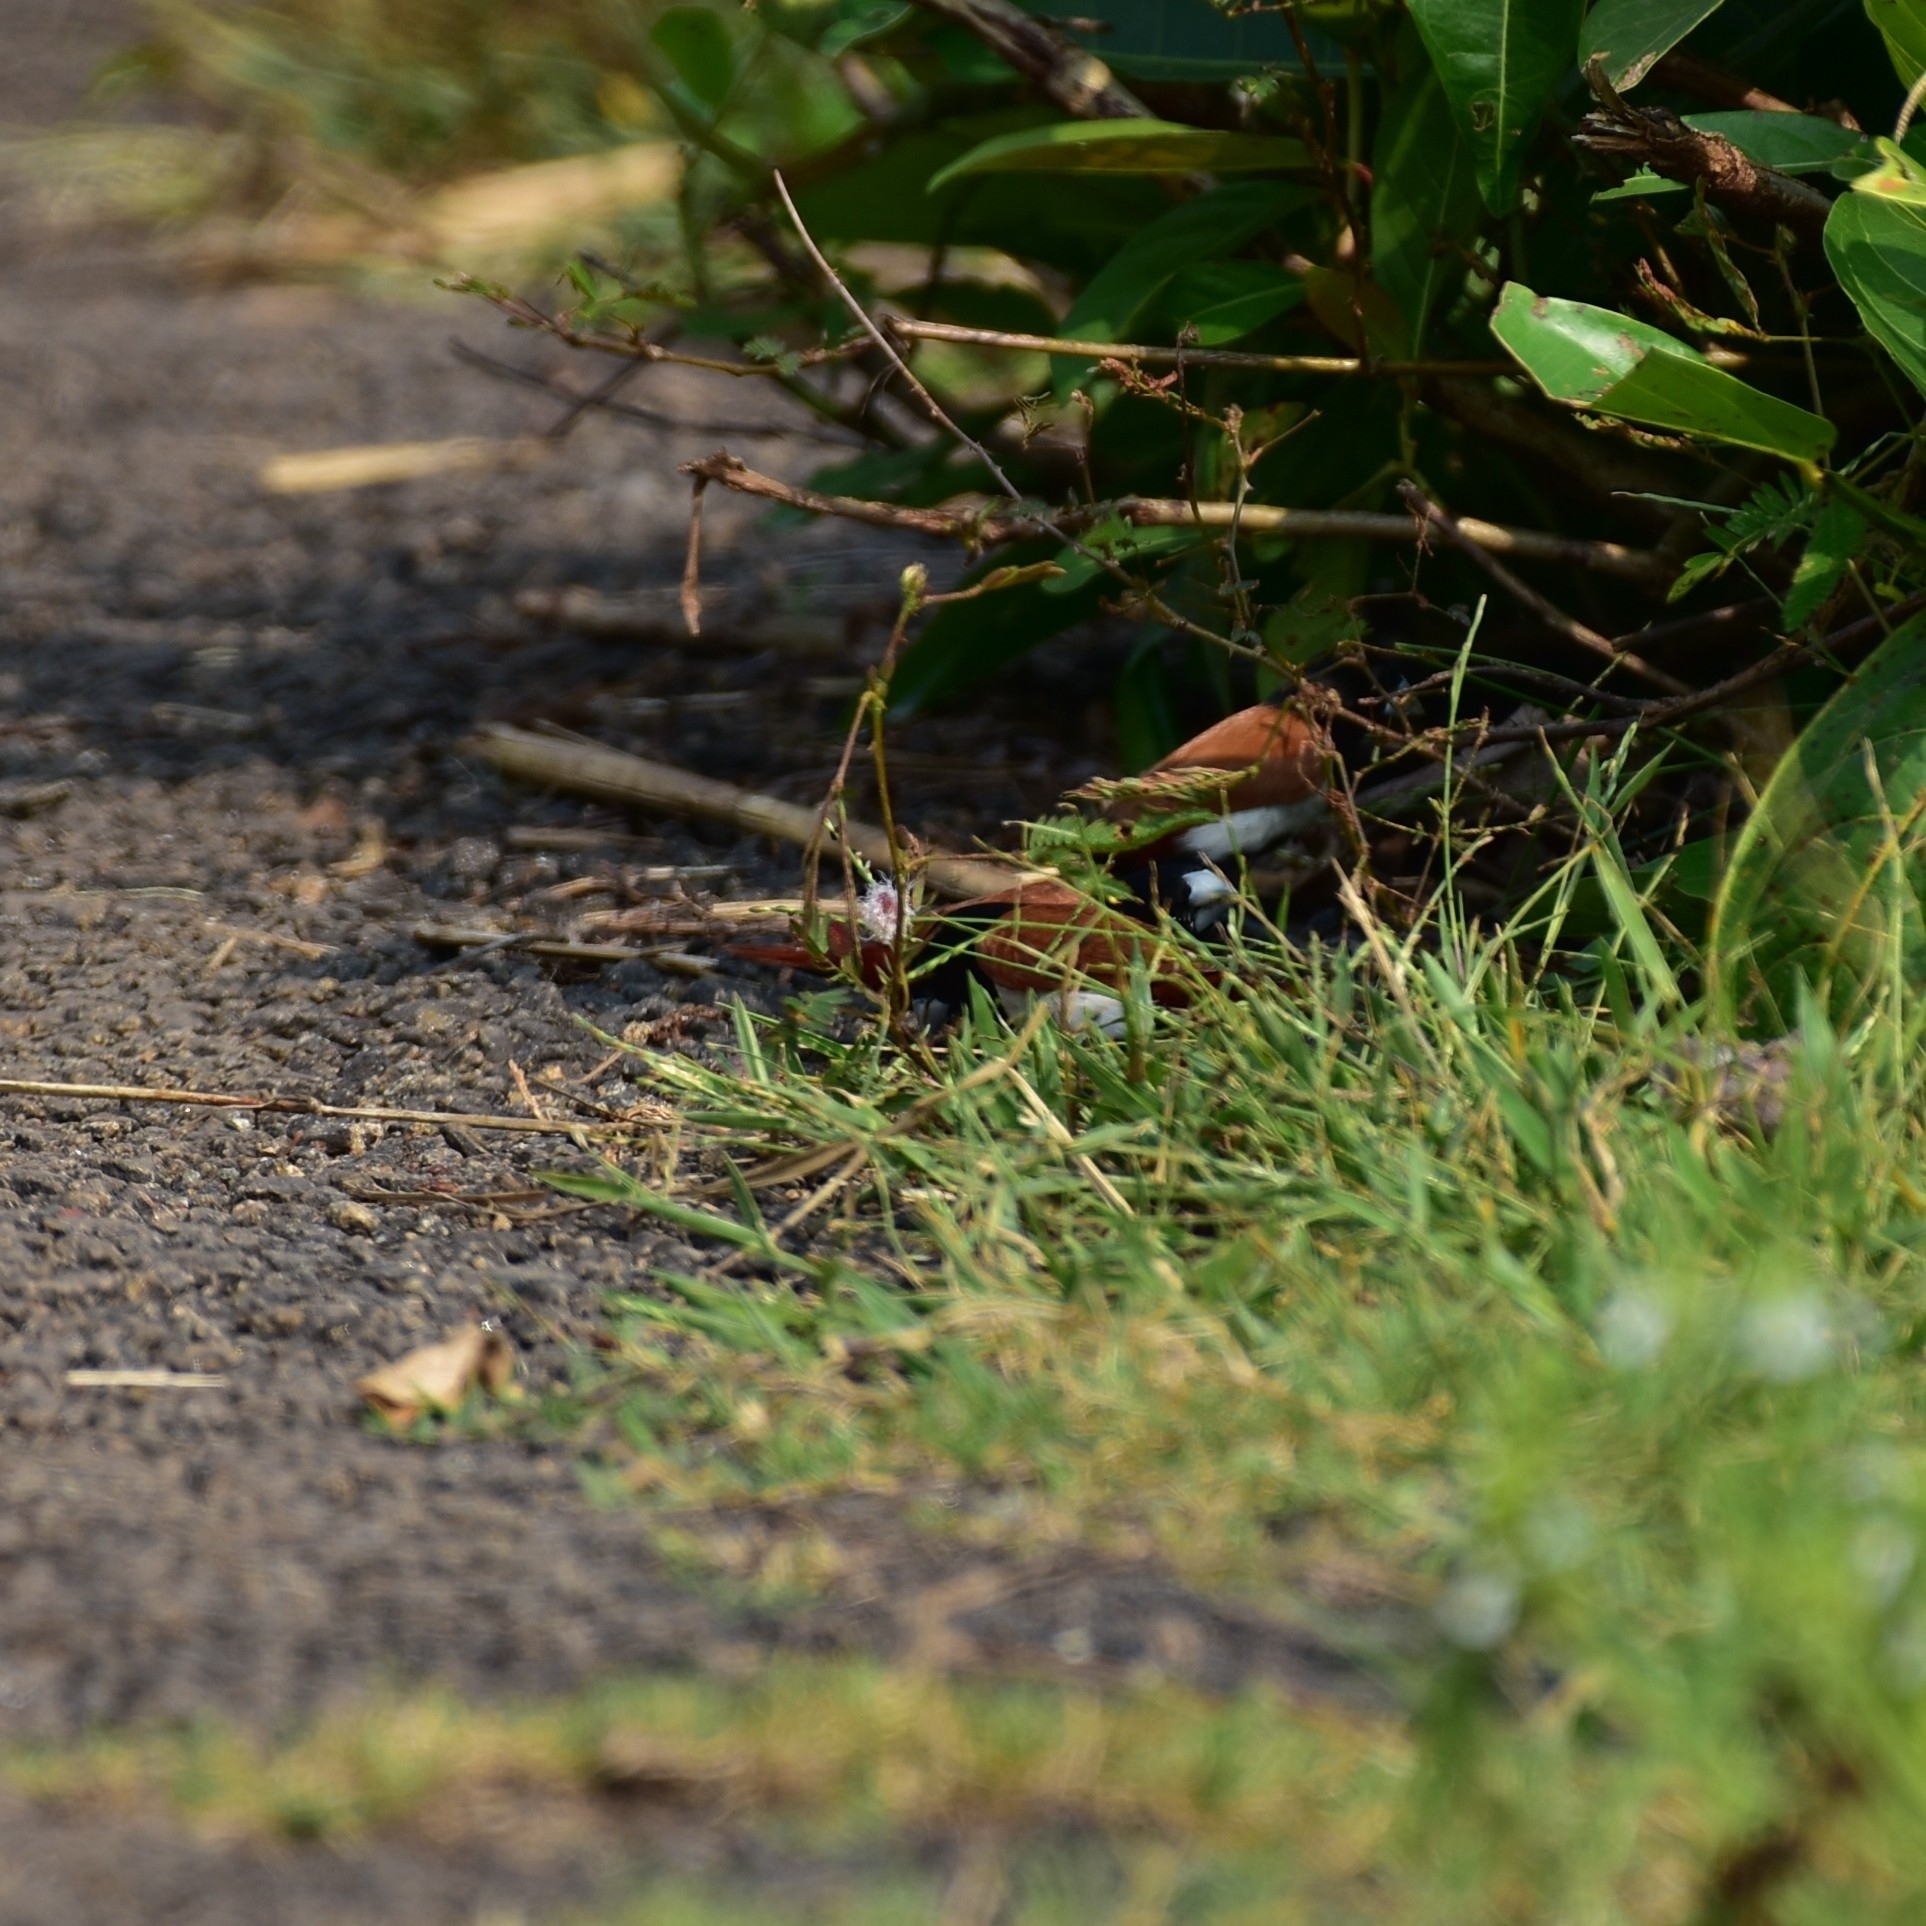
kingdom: Animalia
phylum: Chordata
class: Aves
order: Passeriformes
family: Estrildidae
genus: Lonchura
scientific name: Lonchura malacca
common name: Tricolored munia
